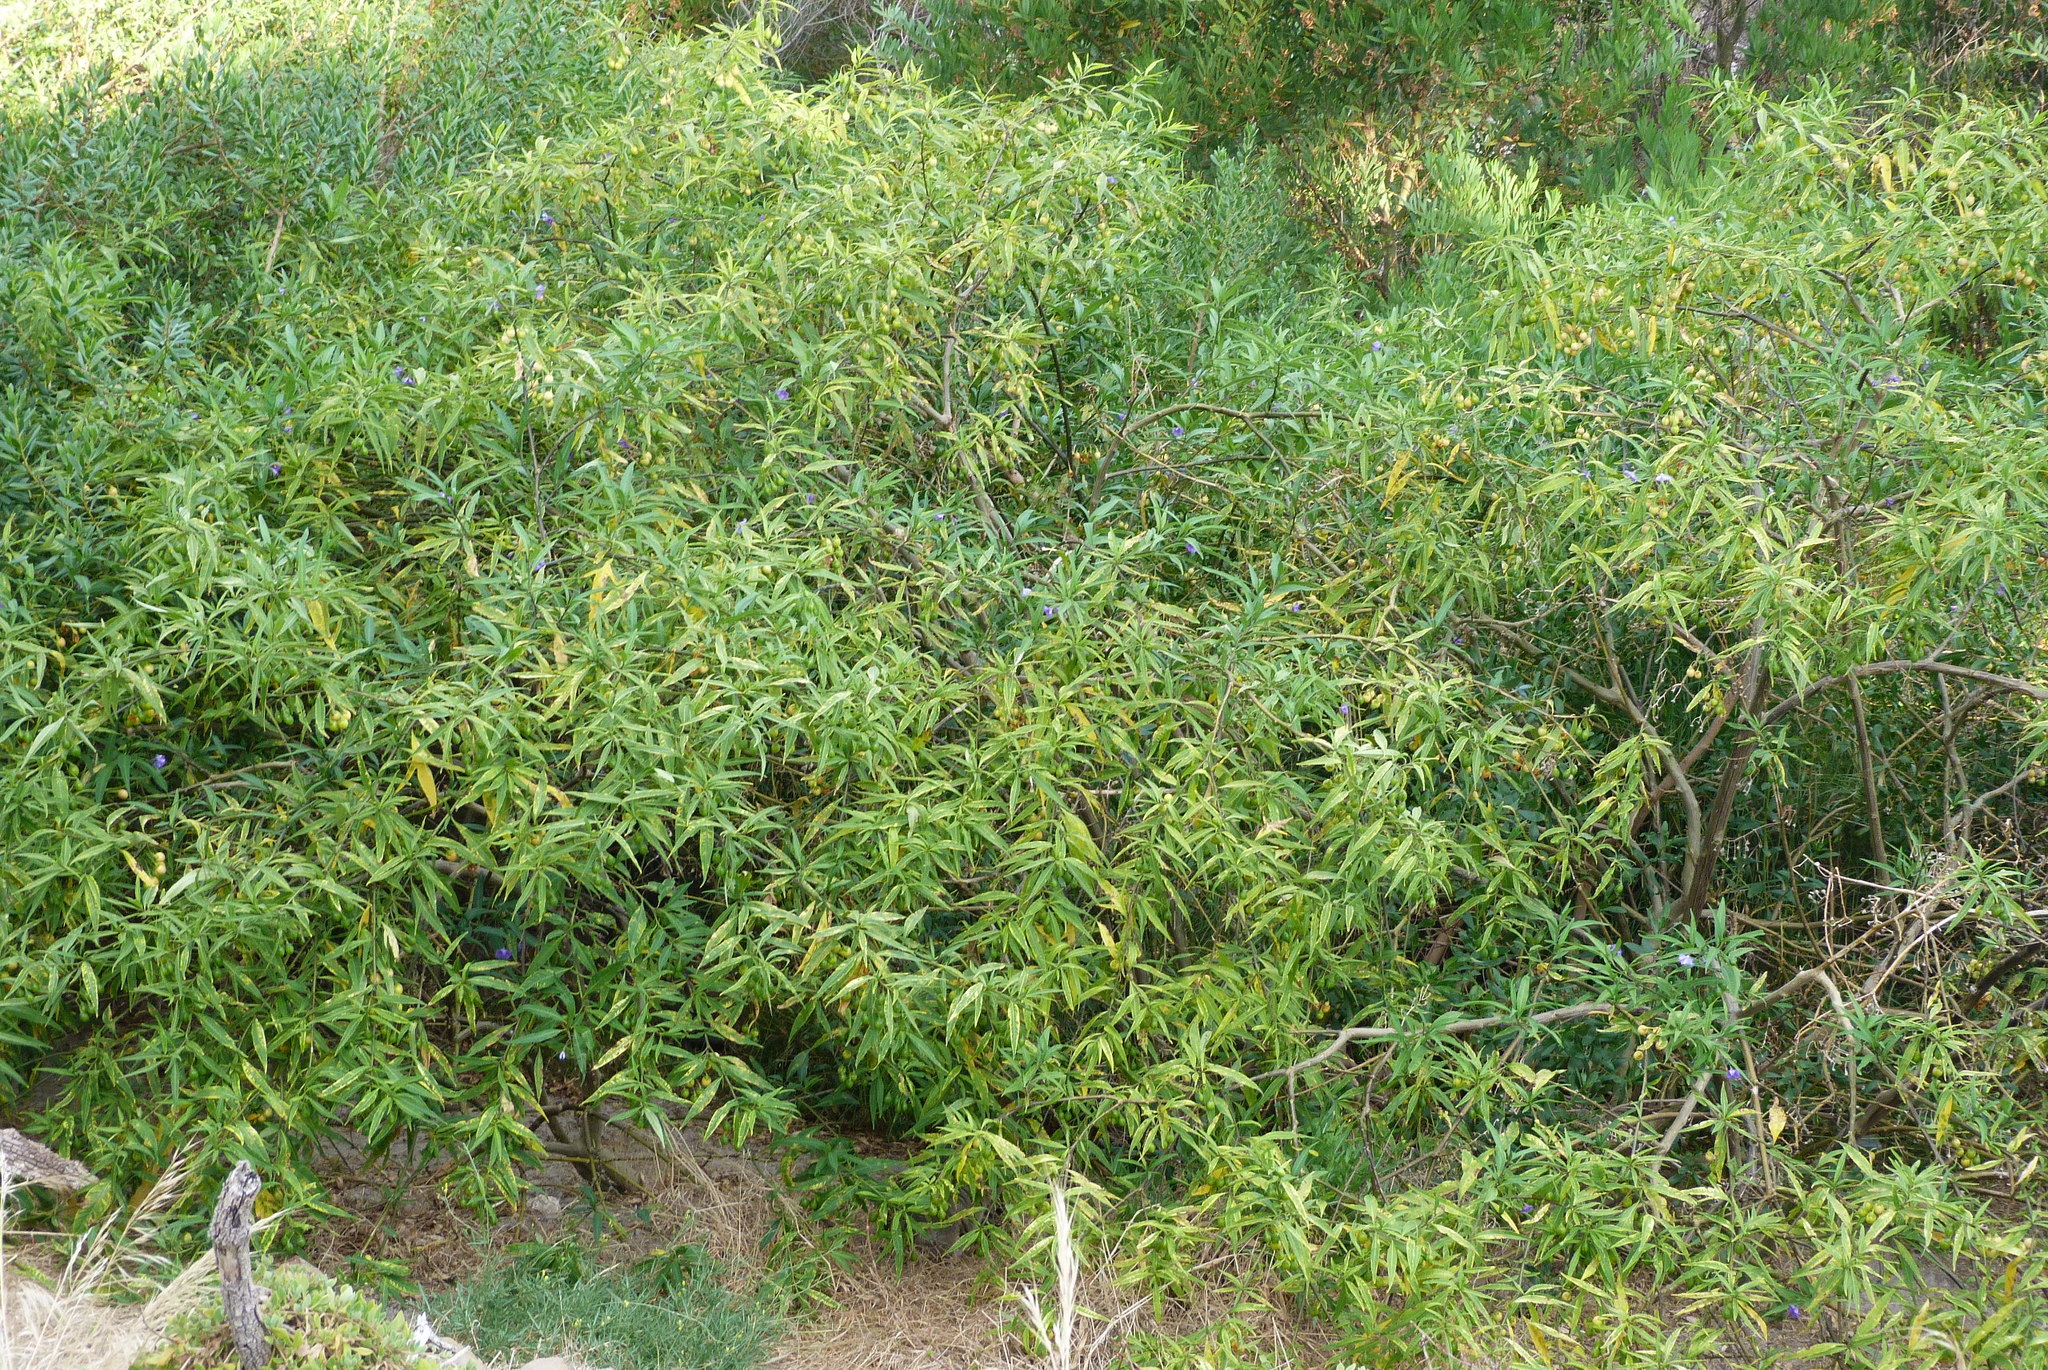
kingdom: Plantae
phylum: Tracheophyta
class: Magnoliopsida
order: Solanales
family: Solanaceae
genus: Solanum
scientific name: Solanum laciniatum
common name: Kangaroo-apple
